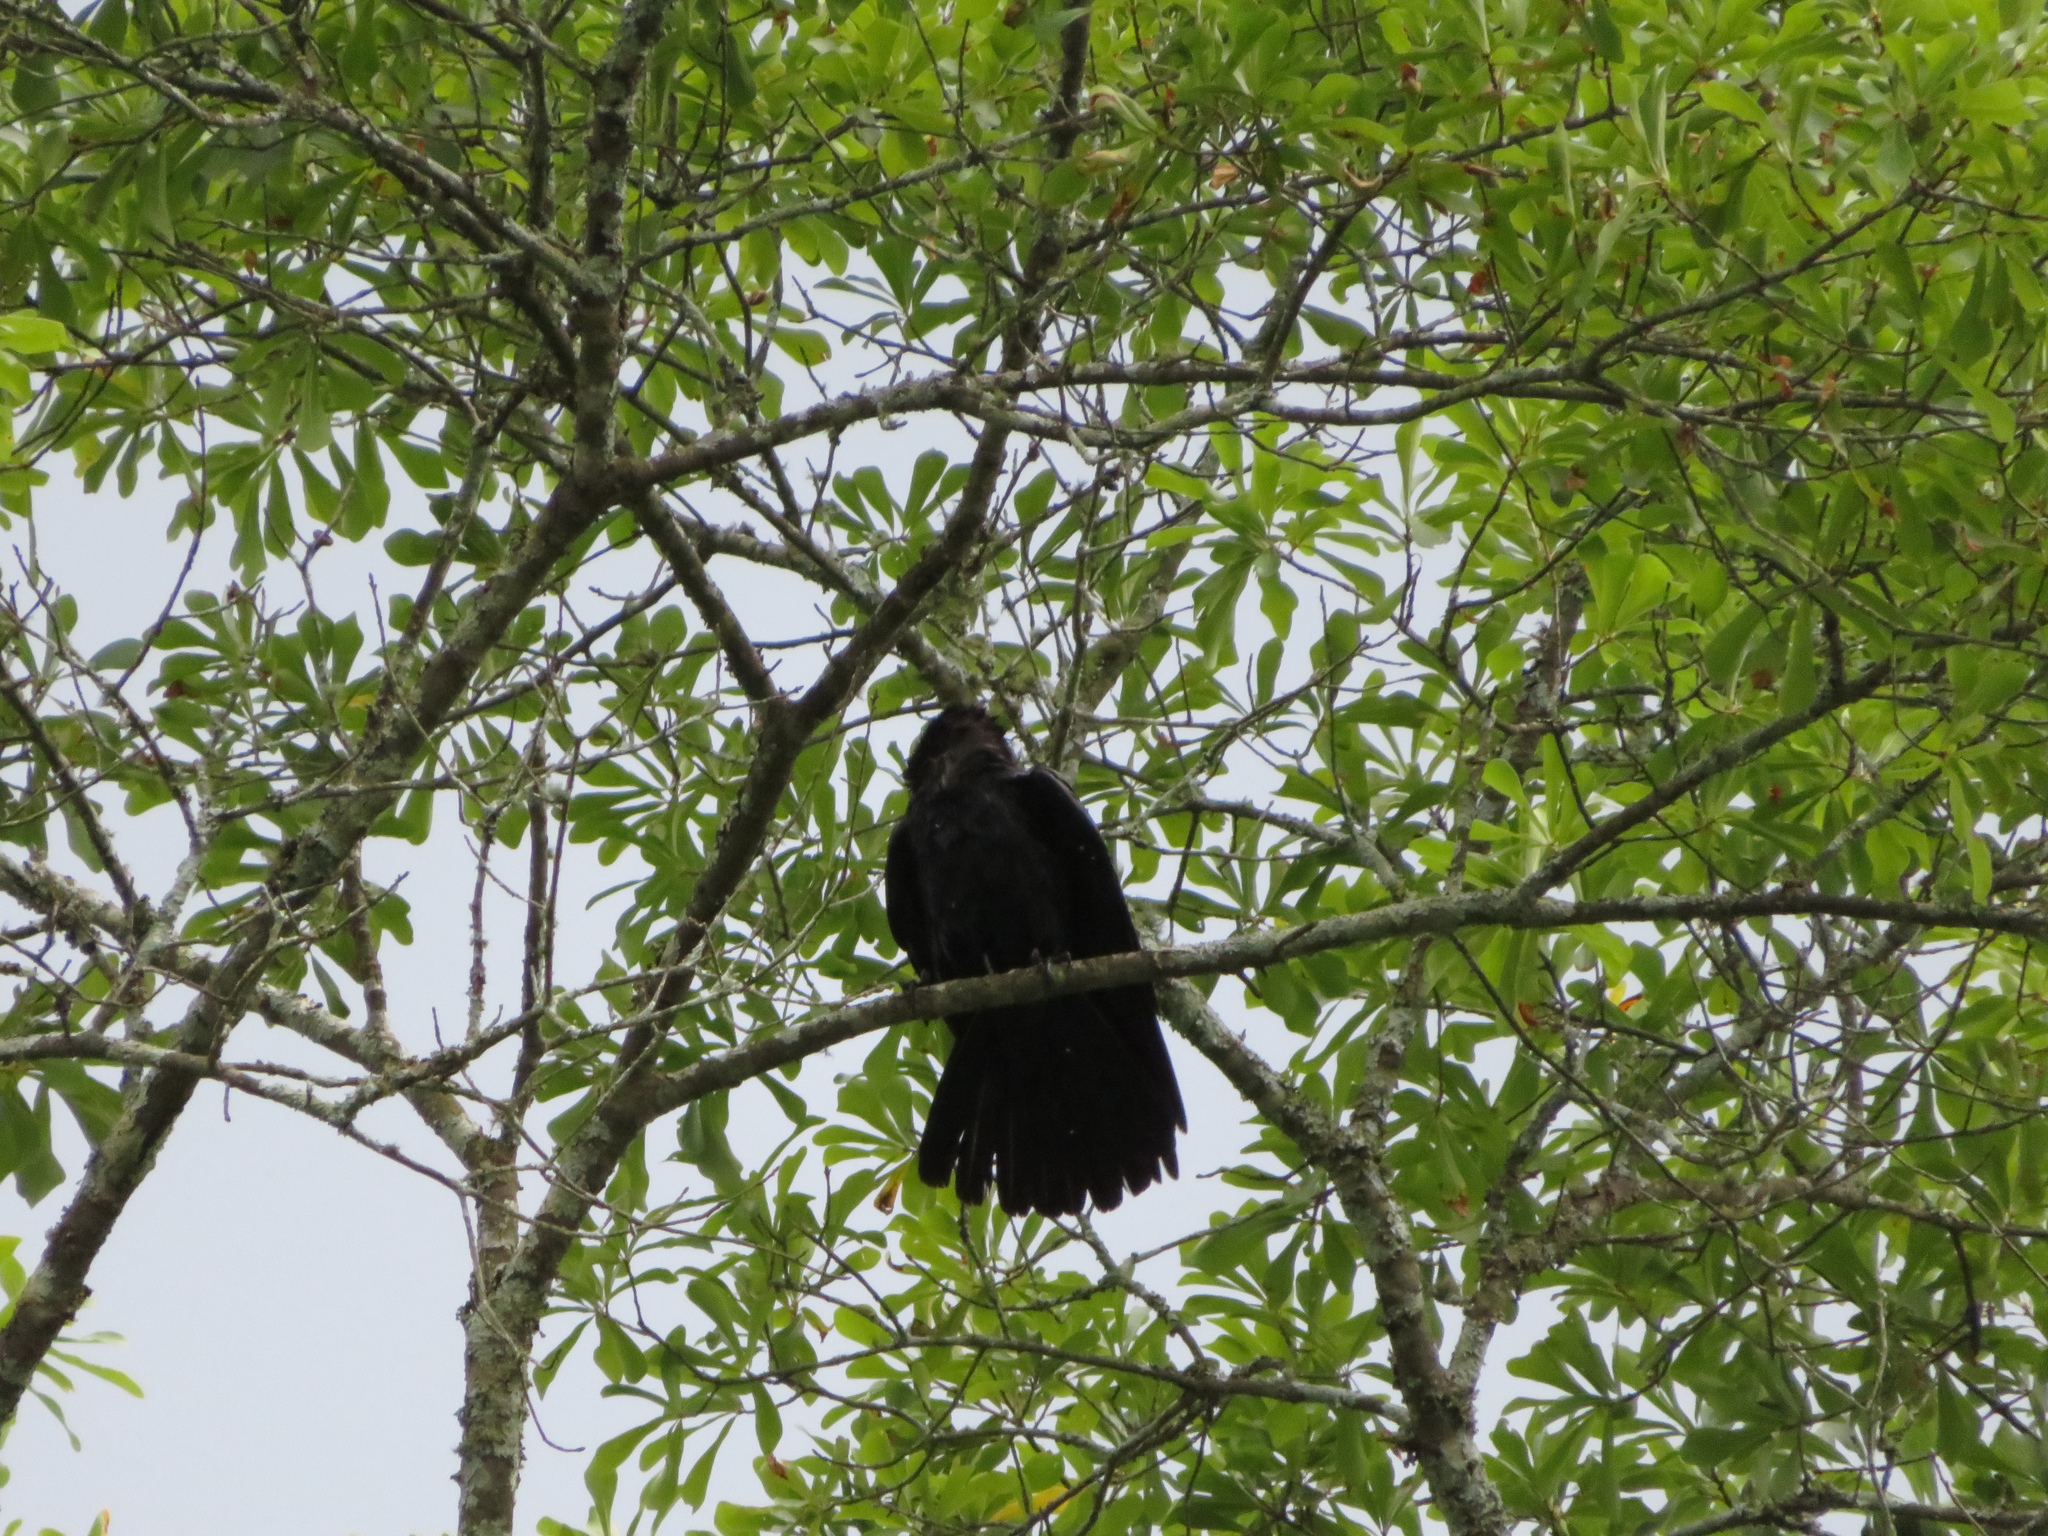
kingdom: Animalia
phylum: Chordata
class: Aves
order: Passeriformes
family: Corvidae
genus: Corvus
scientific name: Corvus
